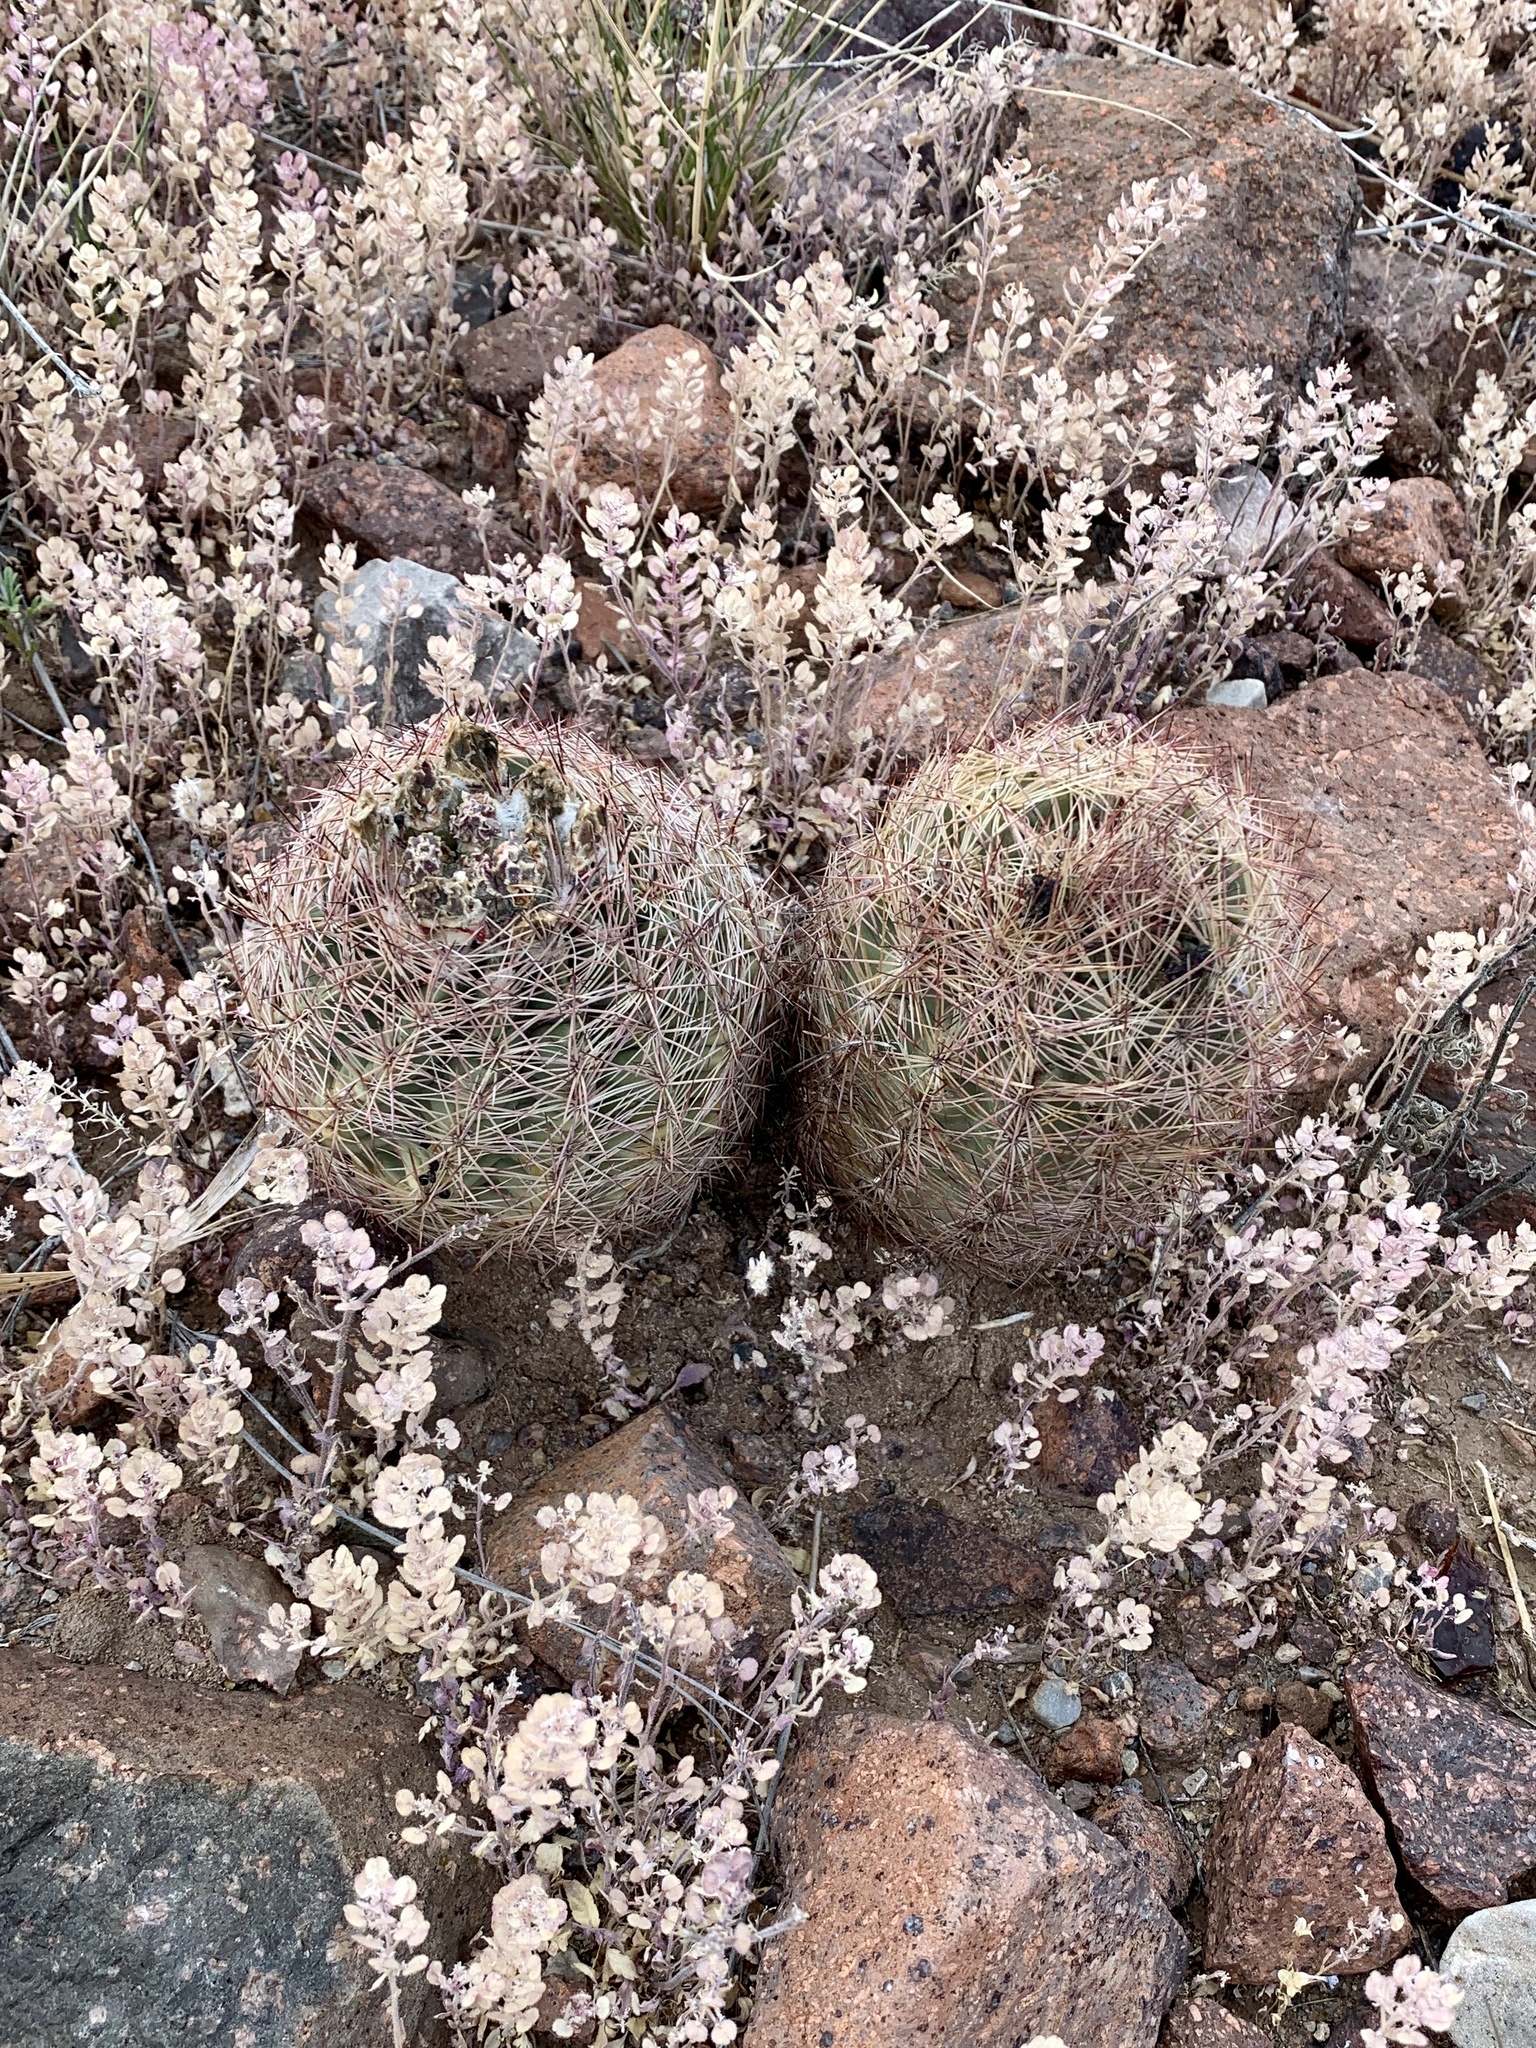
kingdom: Plantae
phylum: Tracheophyta
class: Magnoliopsida
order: Caryophyllales
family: Cactaceae
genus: Sclerocactus
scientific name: Sclerocactus intertextus
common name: White fish-hook cactus
